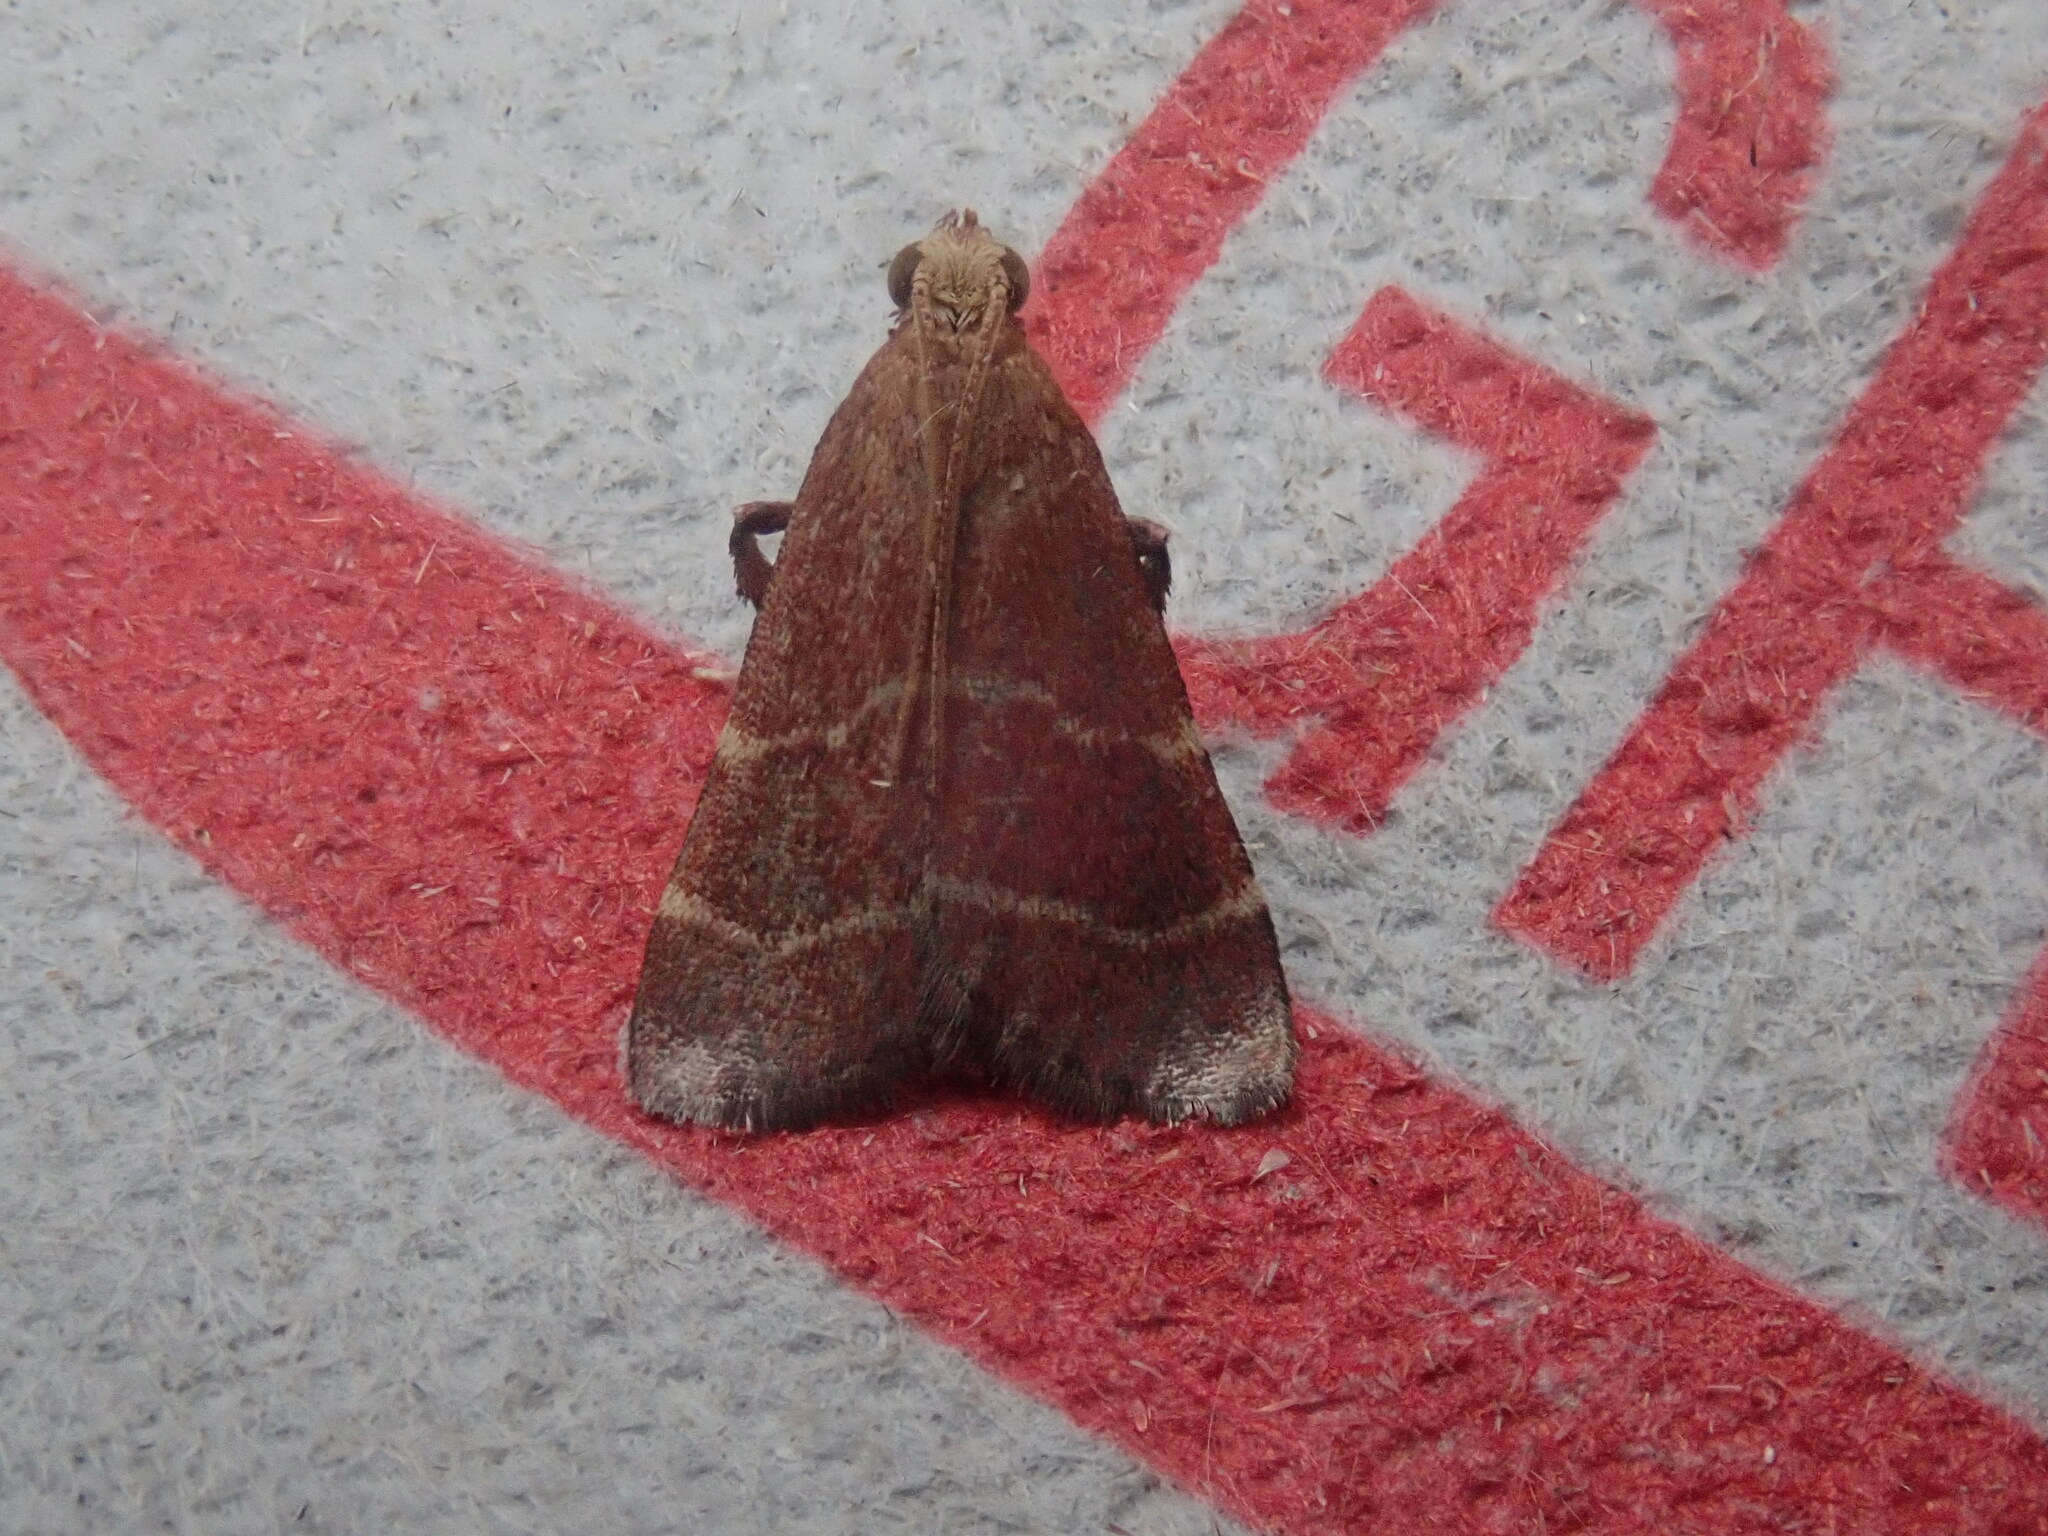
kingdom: Animalia
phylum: Arthropoda
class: Insecta
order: Lepidoptera
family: Pyralidae
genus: Arta
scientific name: Arta statalis
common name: Posturing arta moth
